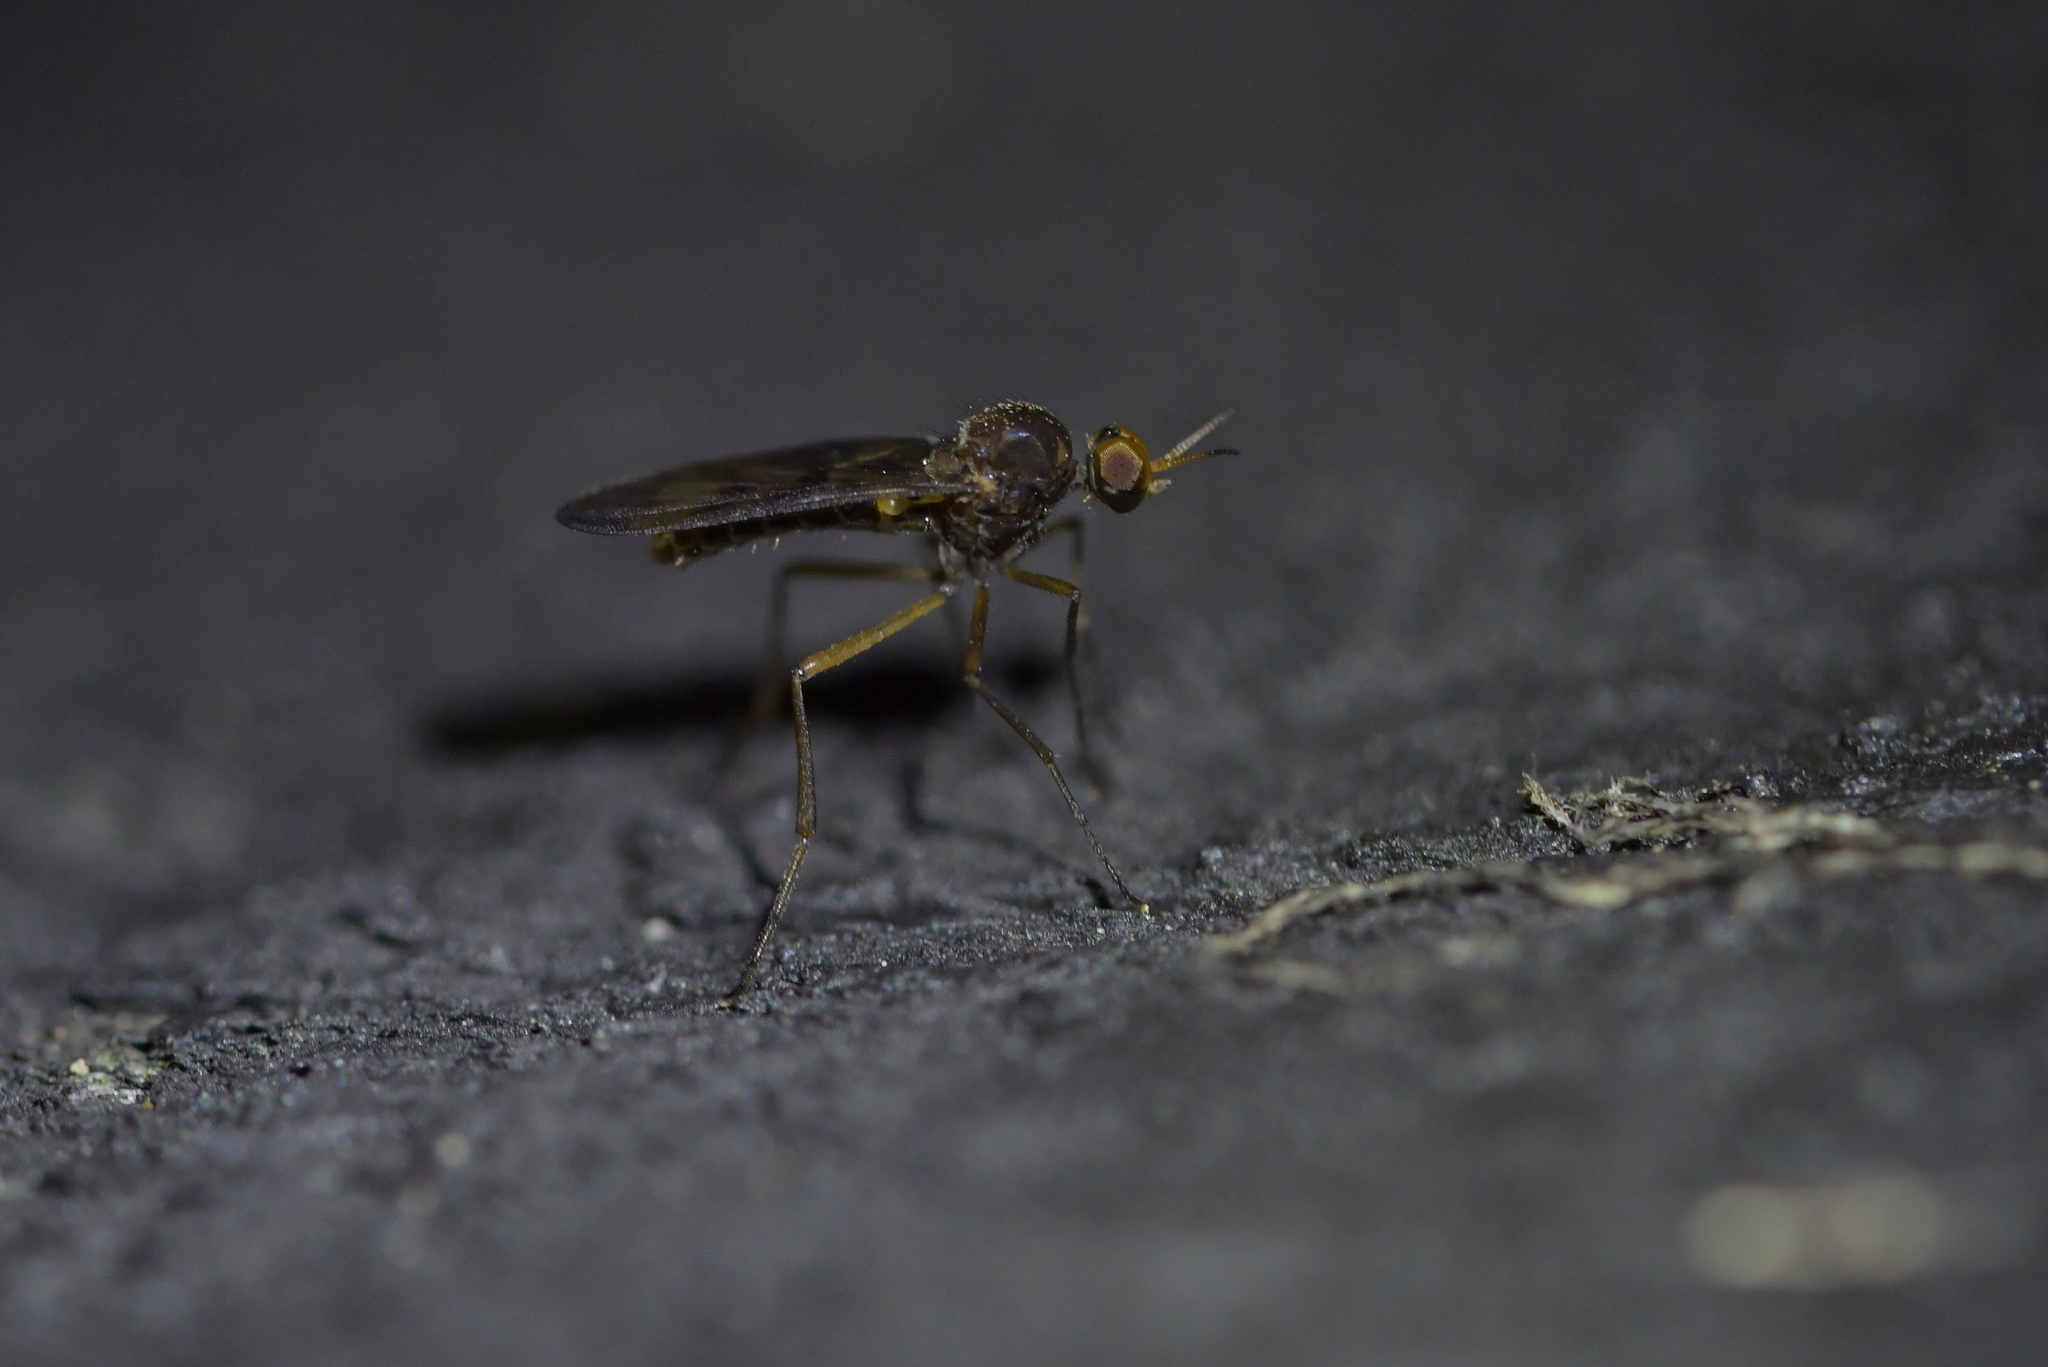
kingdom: Animalia
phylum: Arthropoda
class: Insecta
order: Diptera
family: Anisopodidae
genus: Sylvicola
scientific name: Sylvicola neozelandicus
